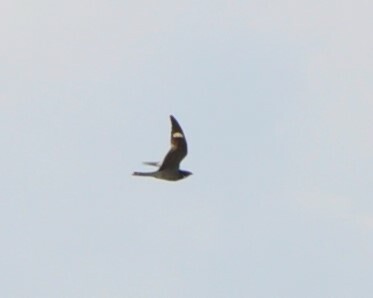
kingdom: Animalia
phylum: Chordata
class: Aves
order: Caprimulgiformes
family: Caprimulgidae
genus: Chordeiles
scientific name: Chordeiles minor
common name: Common nighthawk
